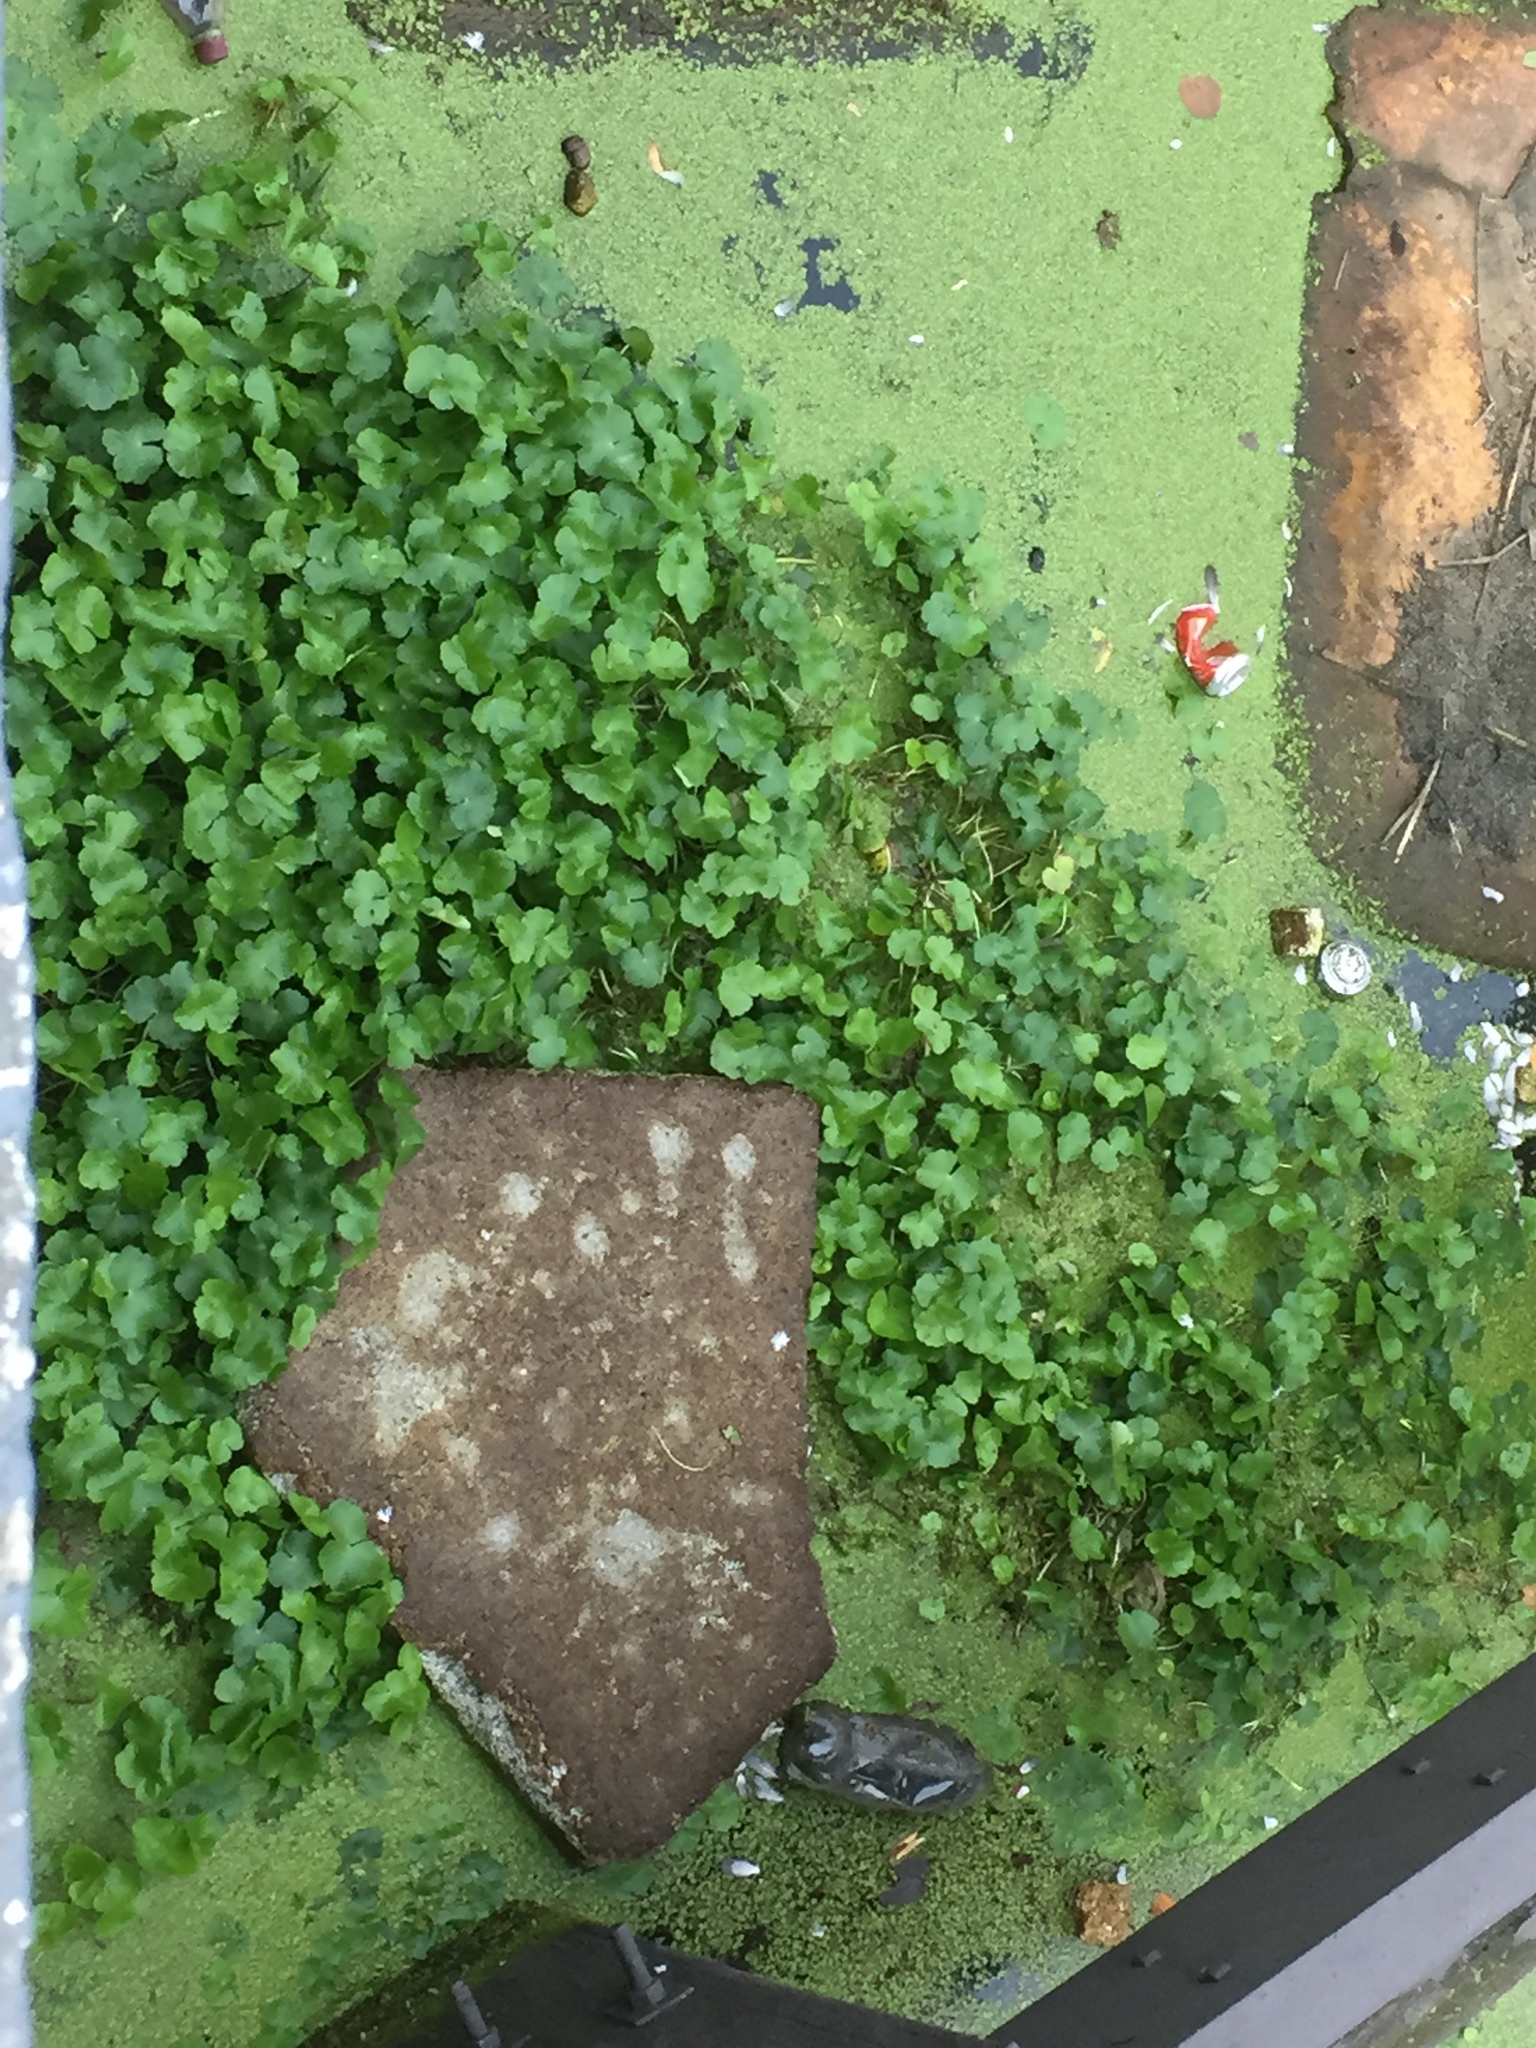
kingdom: Plantae
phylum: Tracheophyta
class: Magnoliopsida
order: Apiales
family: Araliaceae
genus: Hydrocotyle
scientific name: Hydrocotyle ranunculoides
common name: Floating pennywort
